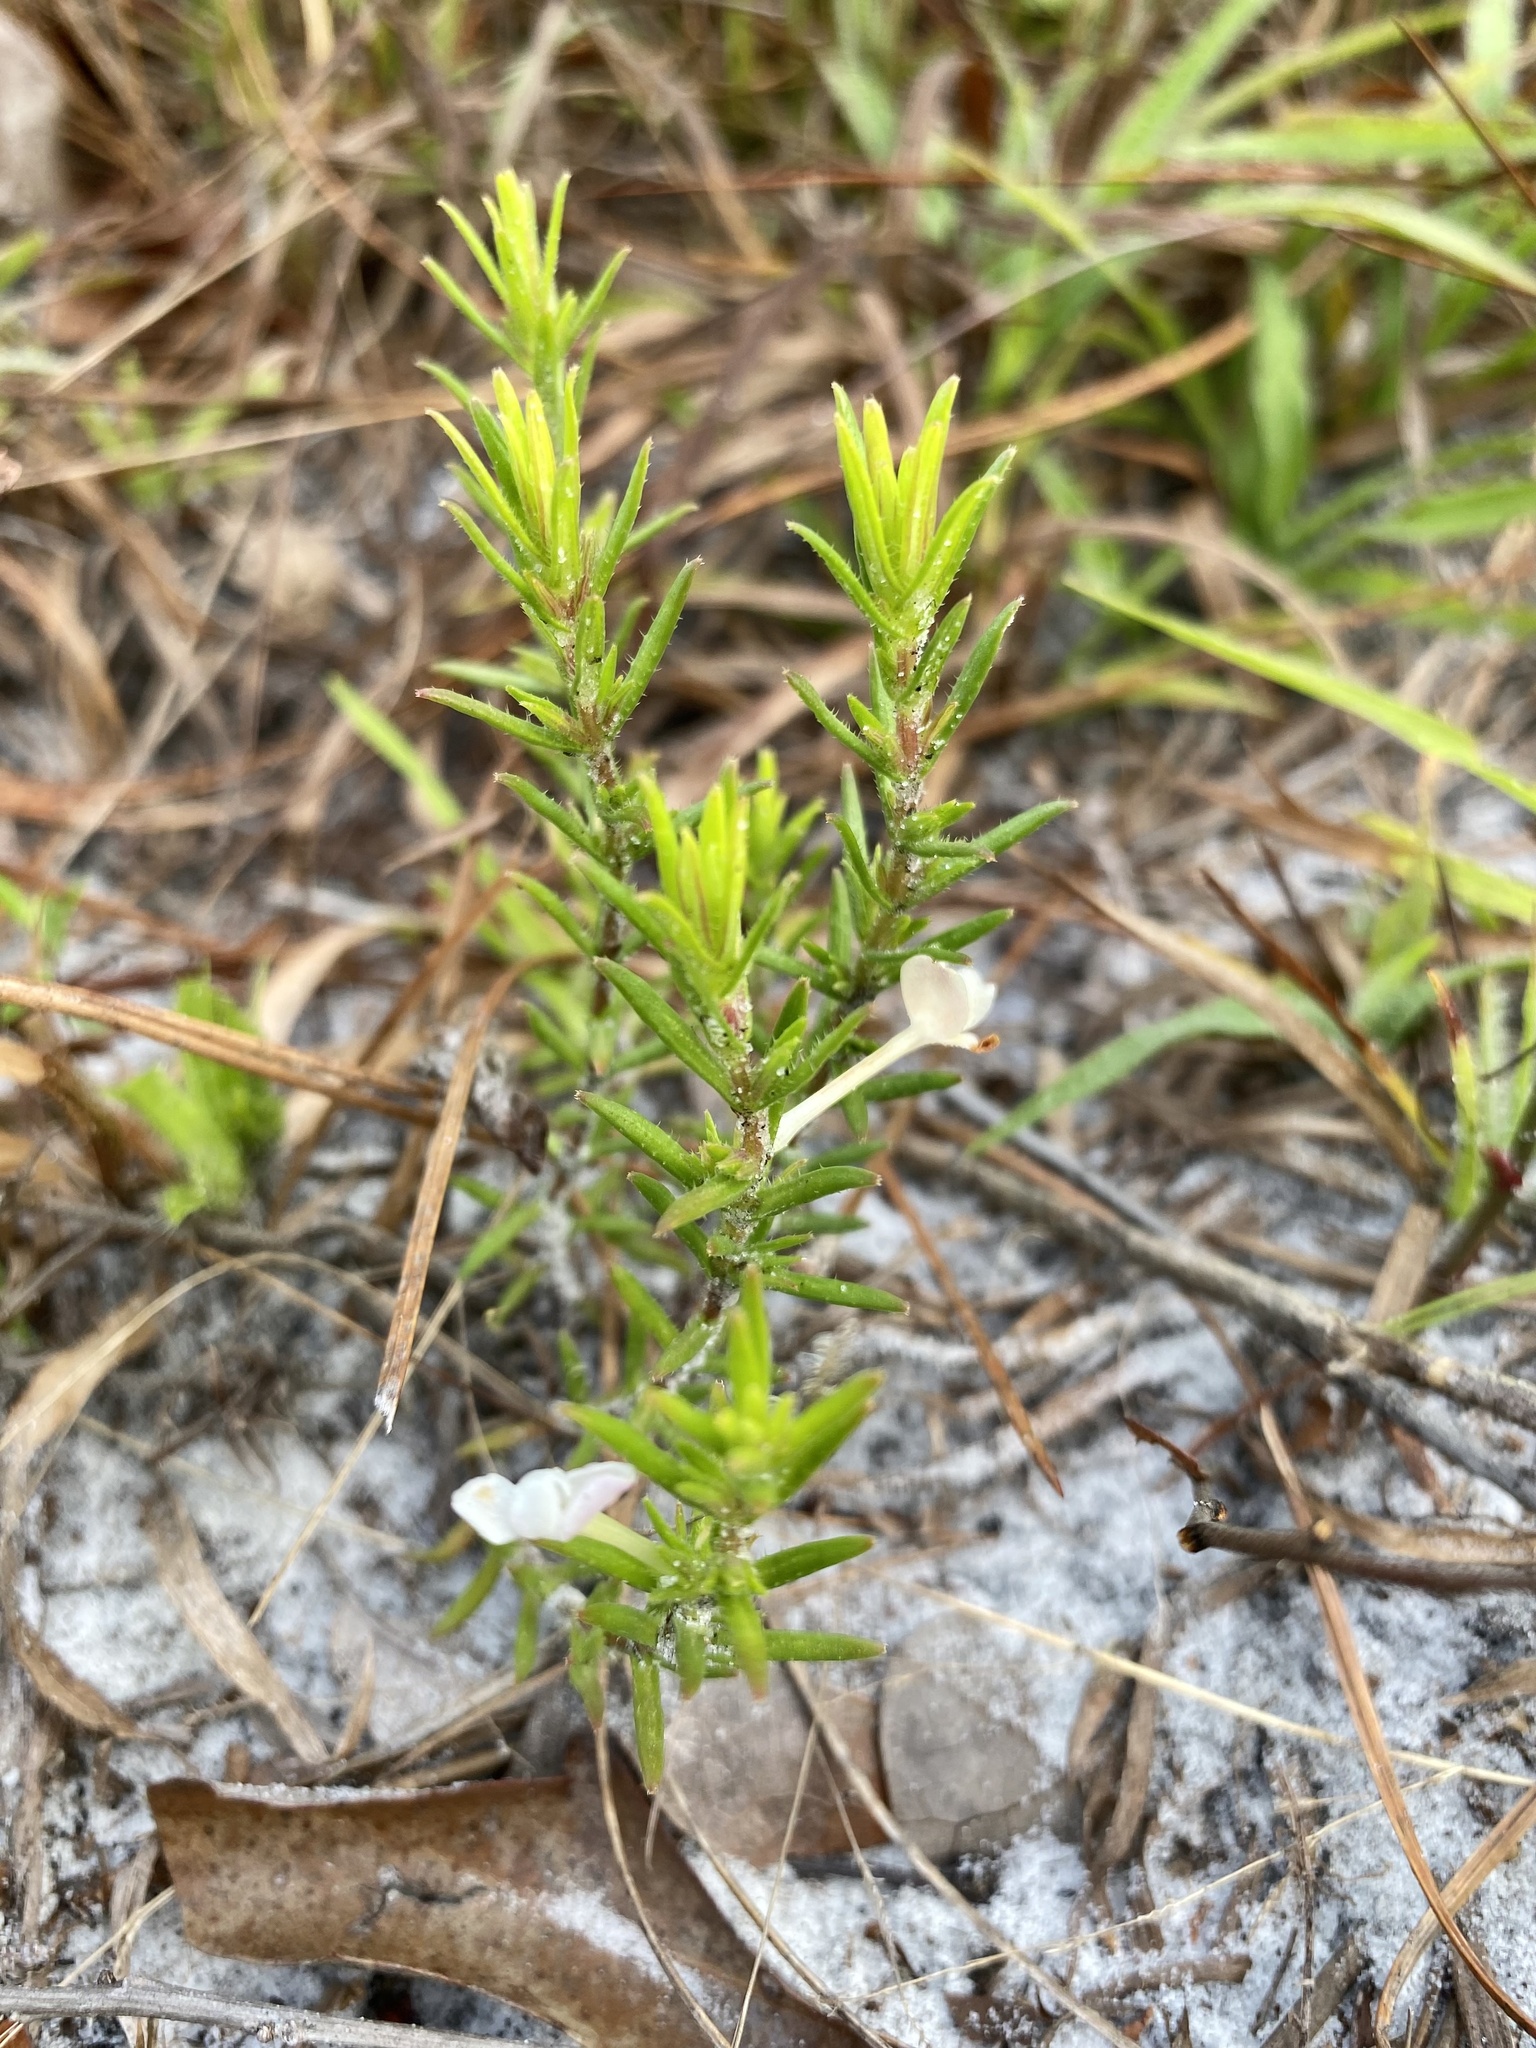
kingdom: Plantae
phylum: Tracheophyta
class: Magnoliopsida
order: Lamiales
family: Plantaginaceae
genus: Gratiola
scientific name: Gratiola hispida
